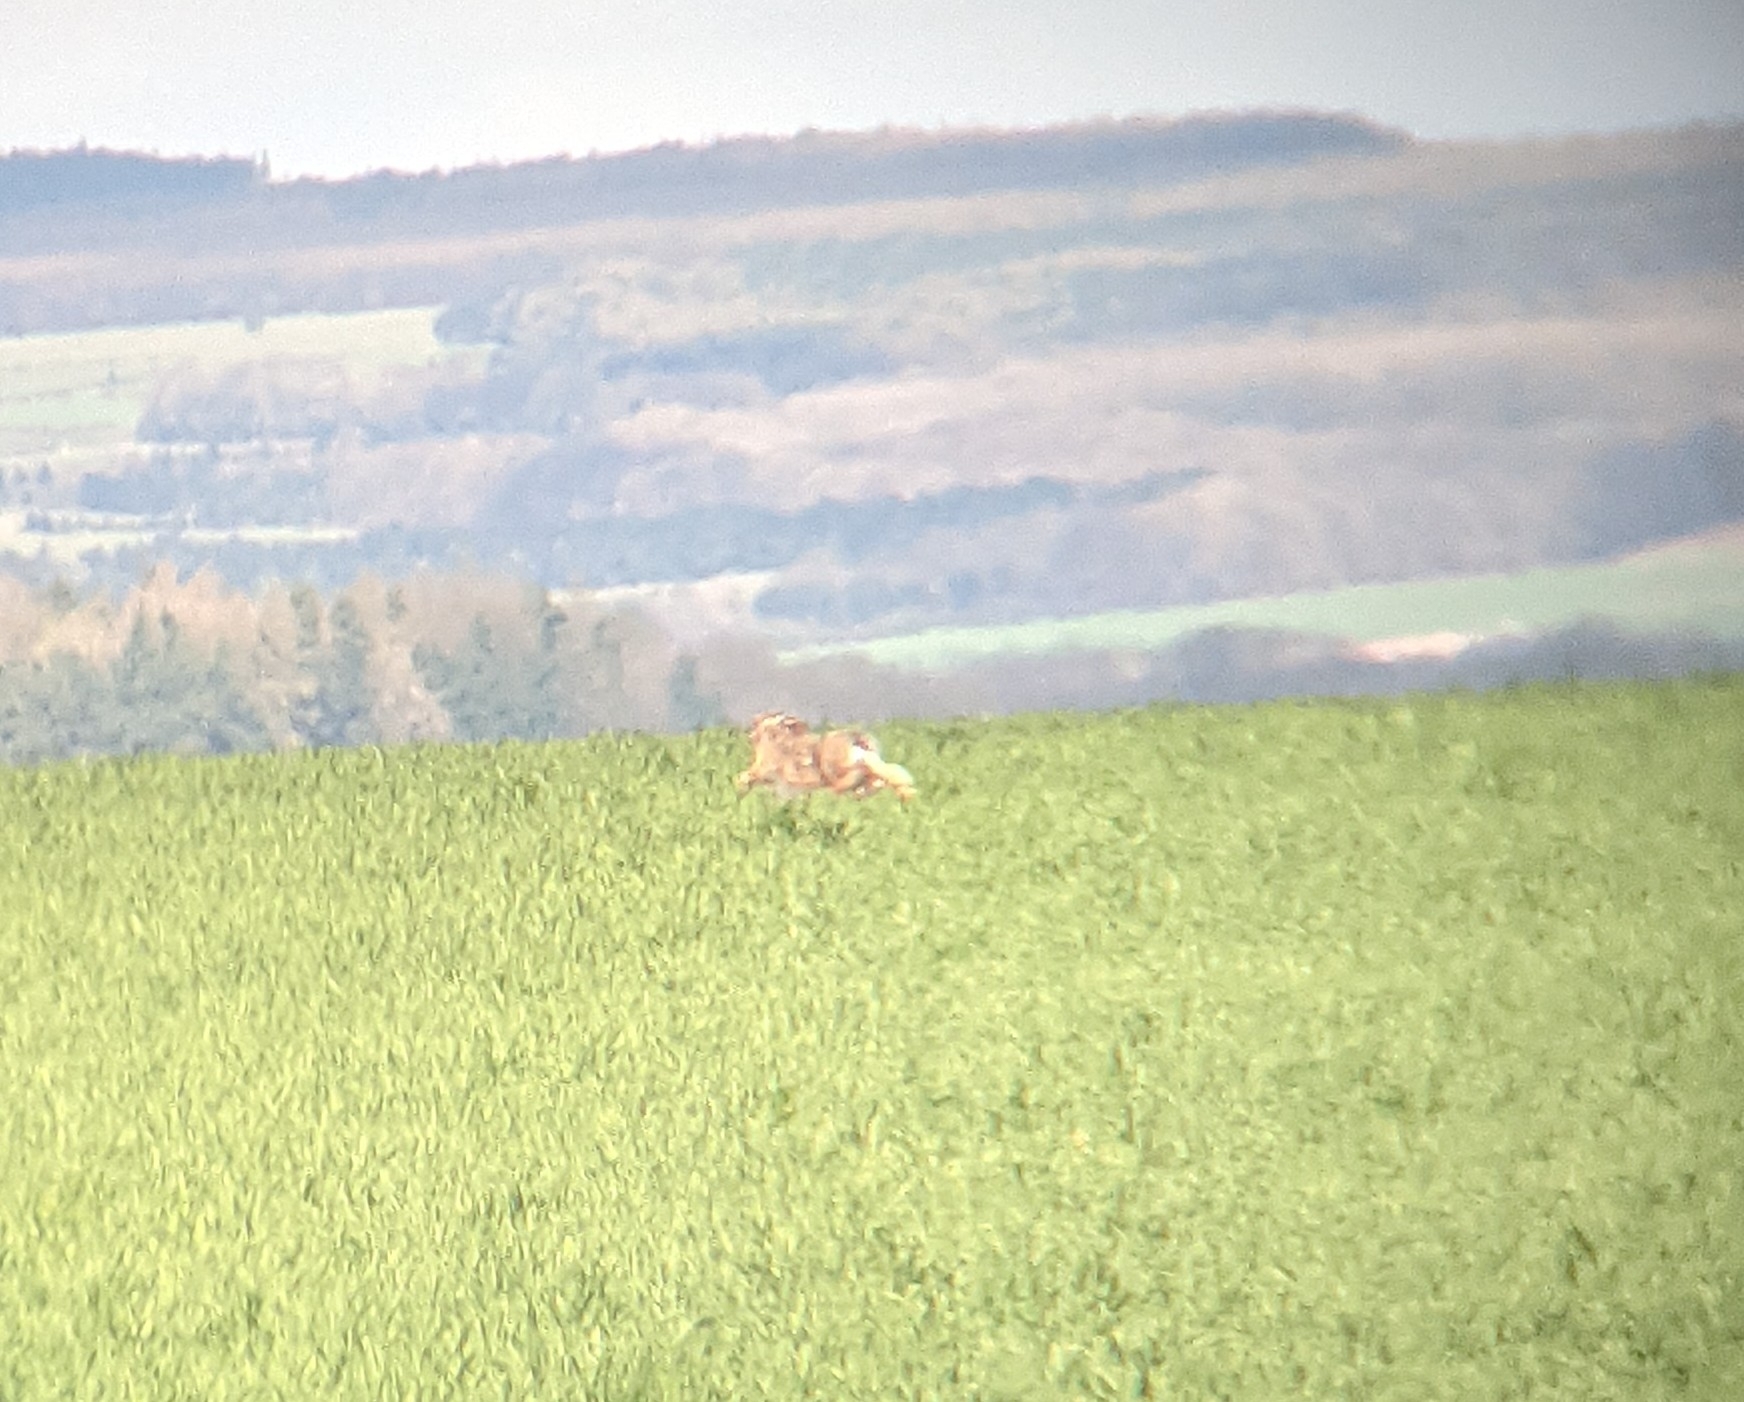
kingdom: Animalia
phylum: Chordata
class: Mammalia
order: Lagomorpha
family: Leporidae
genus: Lepus
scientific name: Lepus europaeus
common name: European hare
